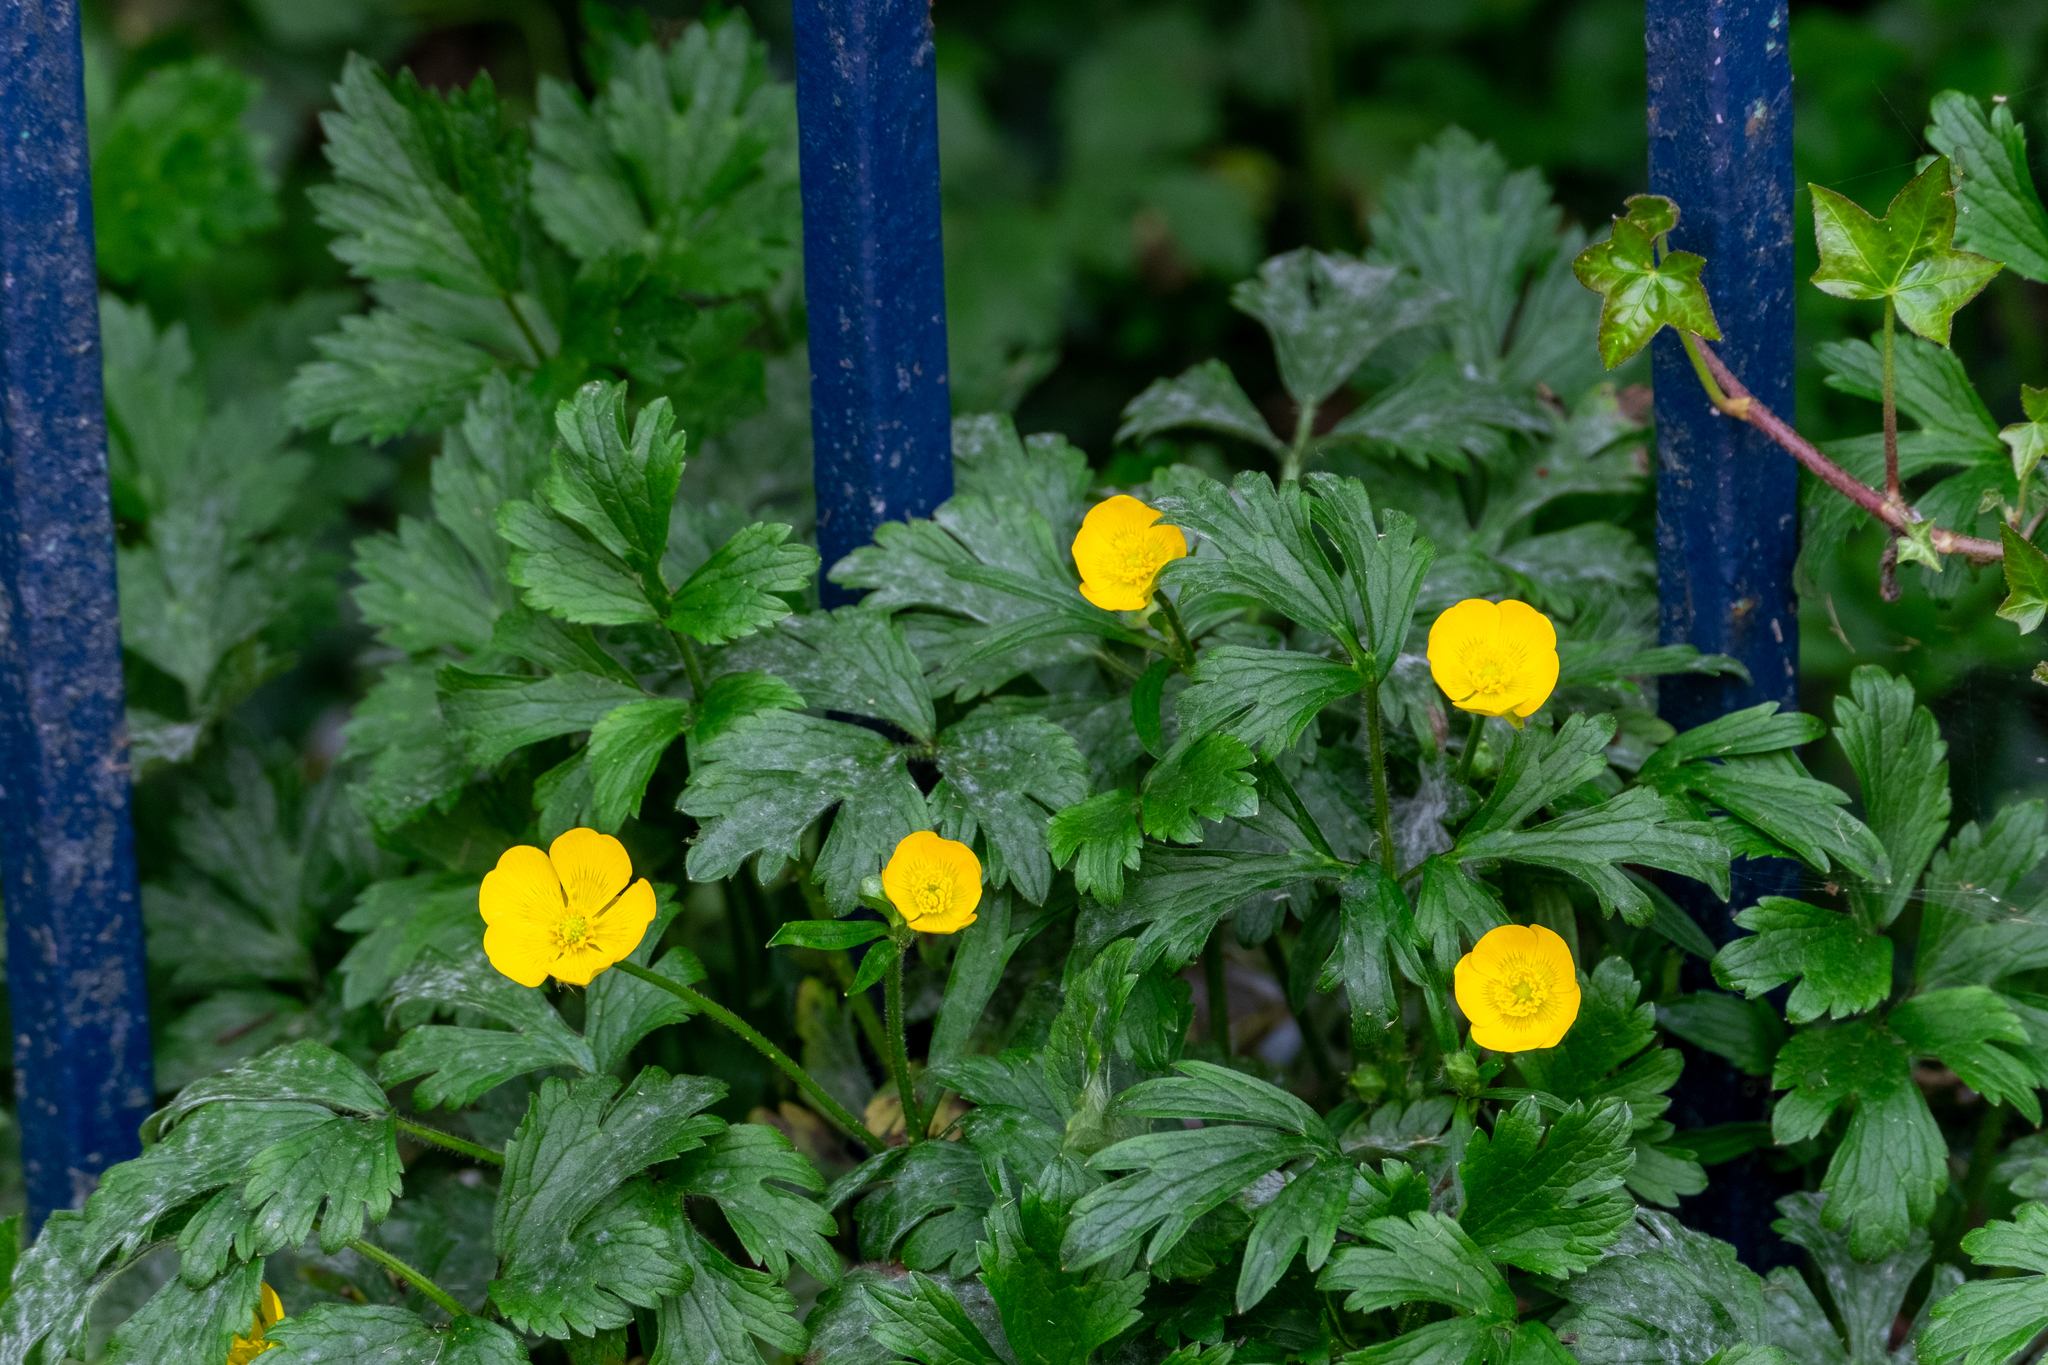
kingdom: Plantae
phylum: Tracheophyta
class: Magnoliopsida
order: Ranunculales
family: Ranunculaceae
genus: Ranunculus
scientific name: Ranunculus repens
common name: Creeping buttercup
